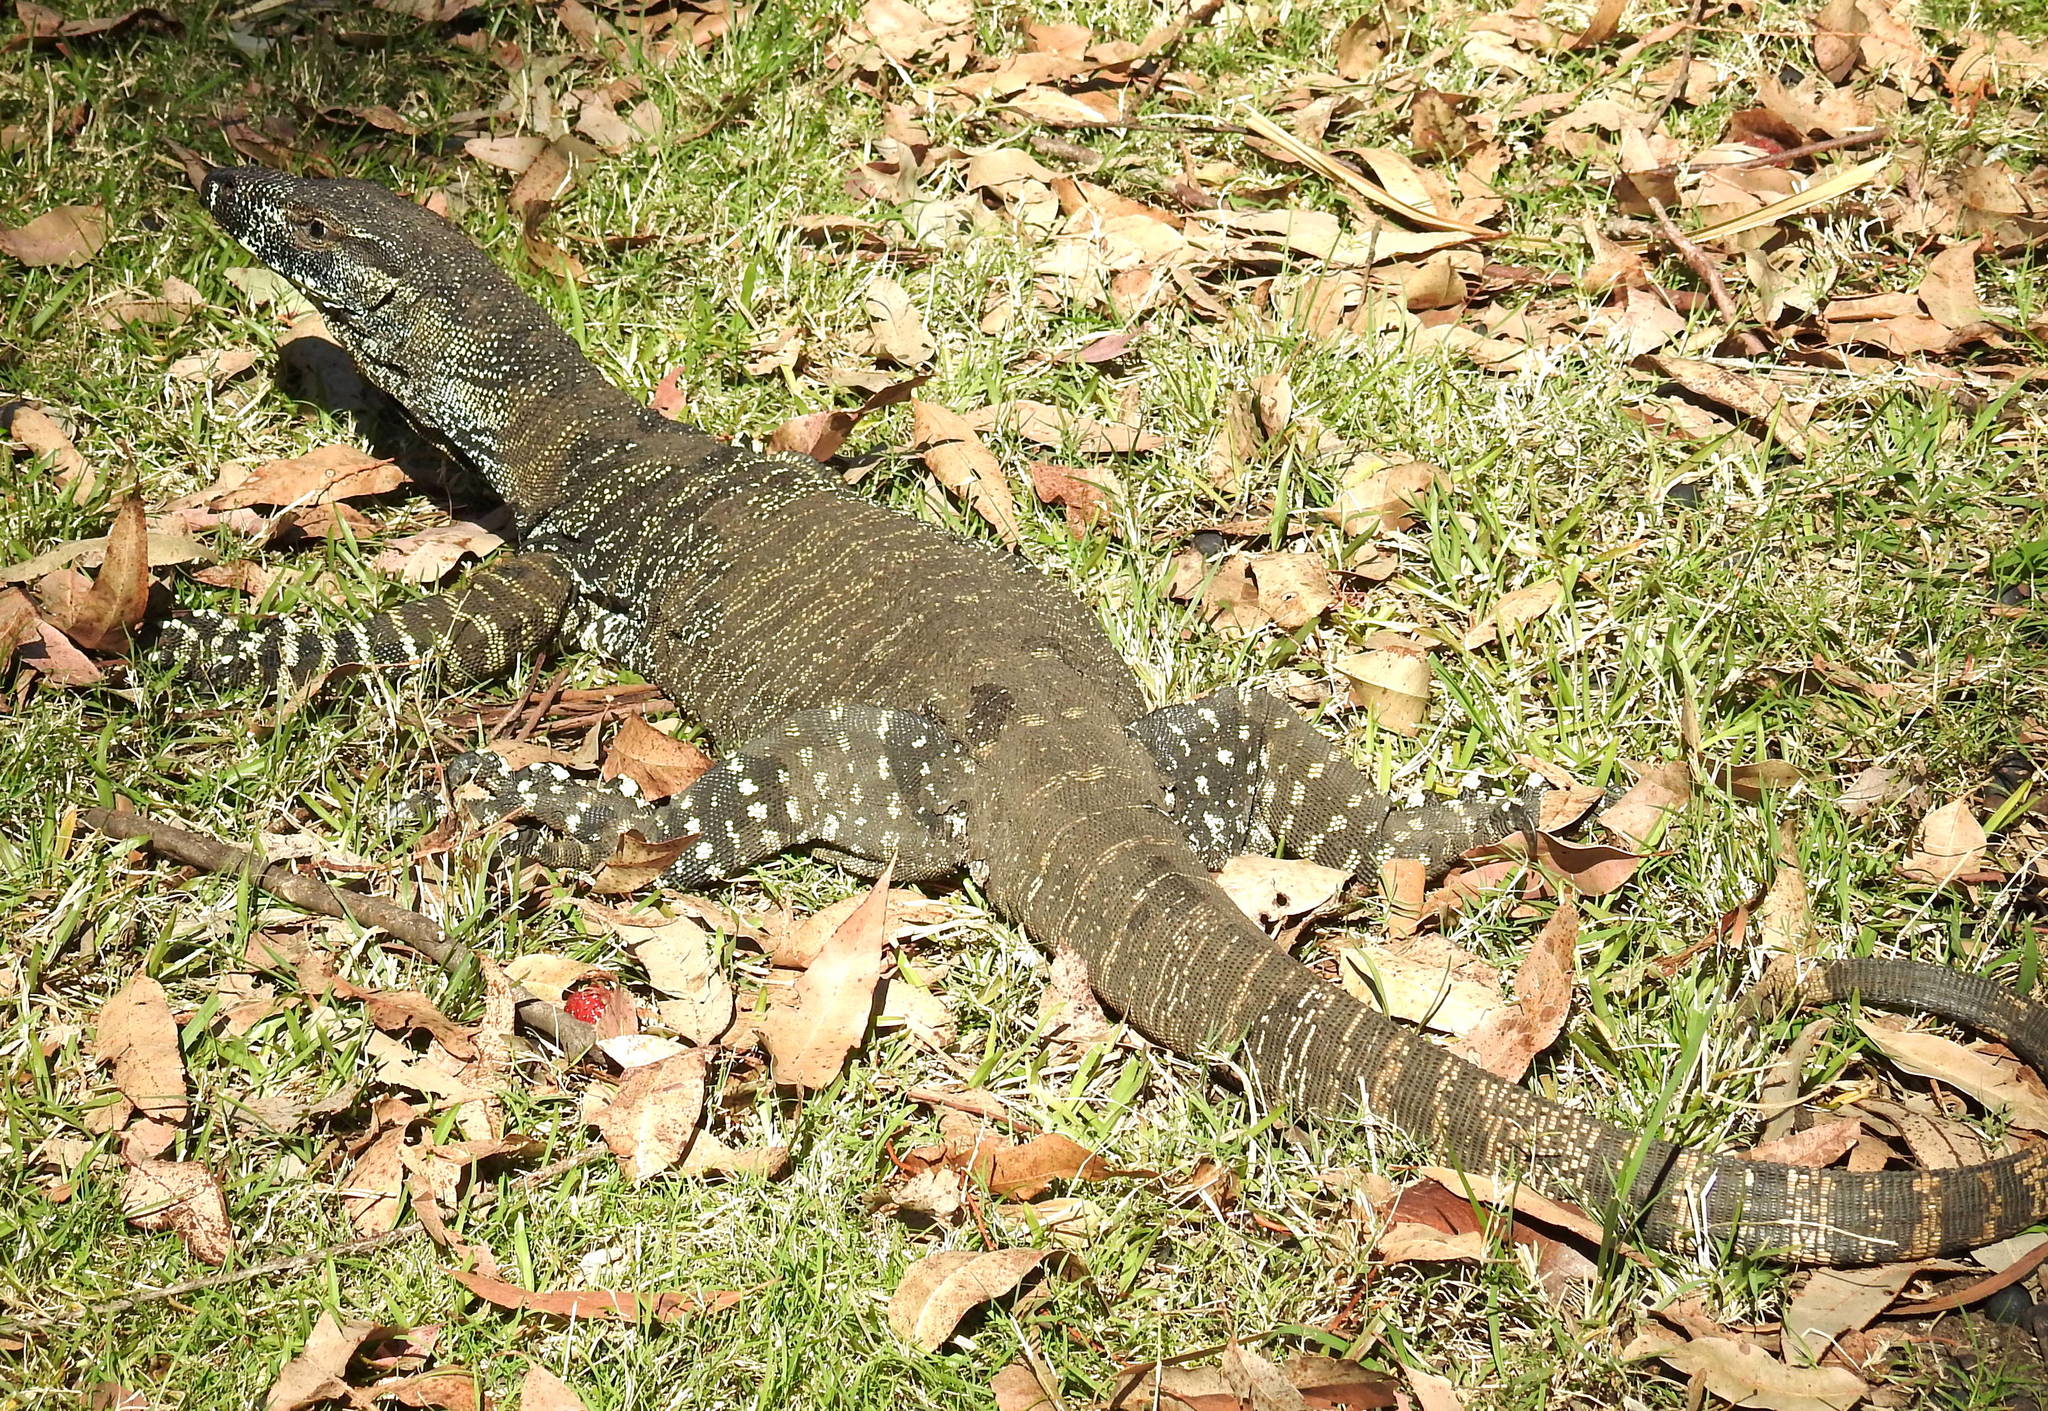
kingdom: Animalia
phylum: Chordata
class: Squamata
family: Varanidae
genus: Varanus
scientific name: Varanus varius
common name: Lace monitor
